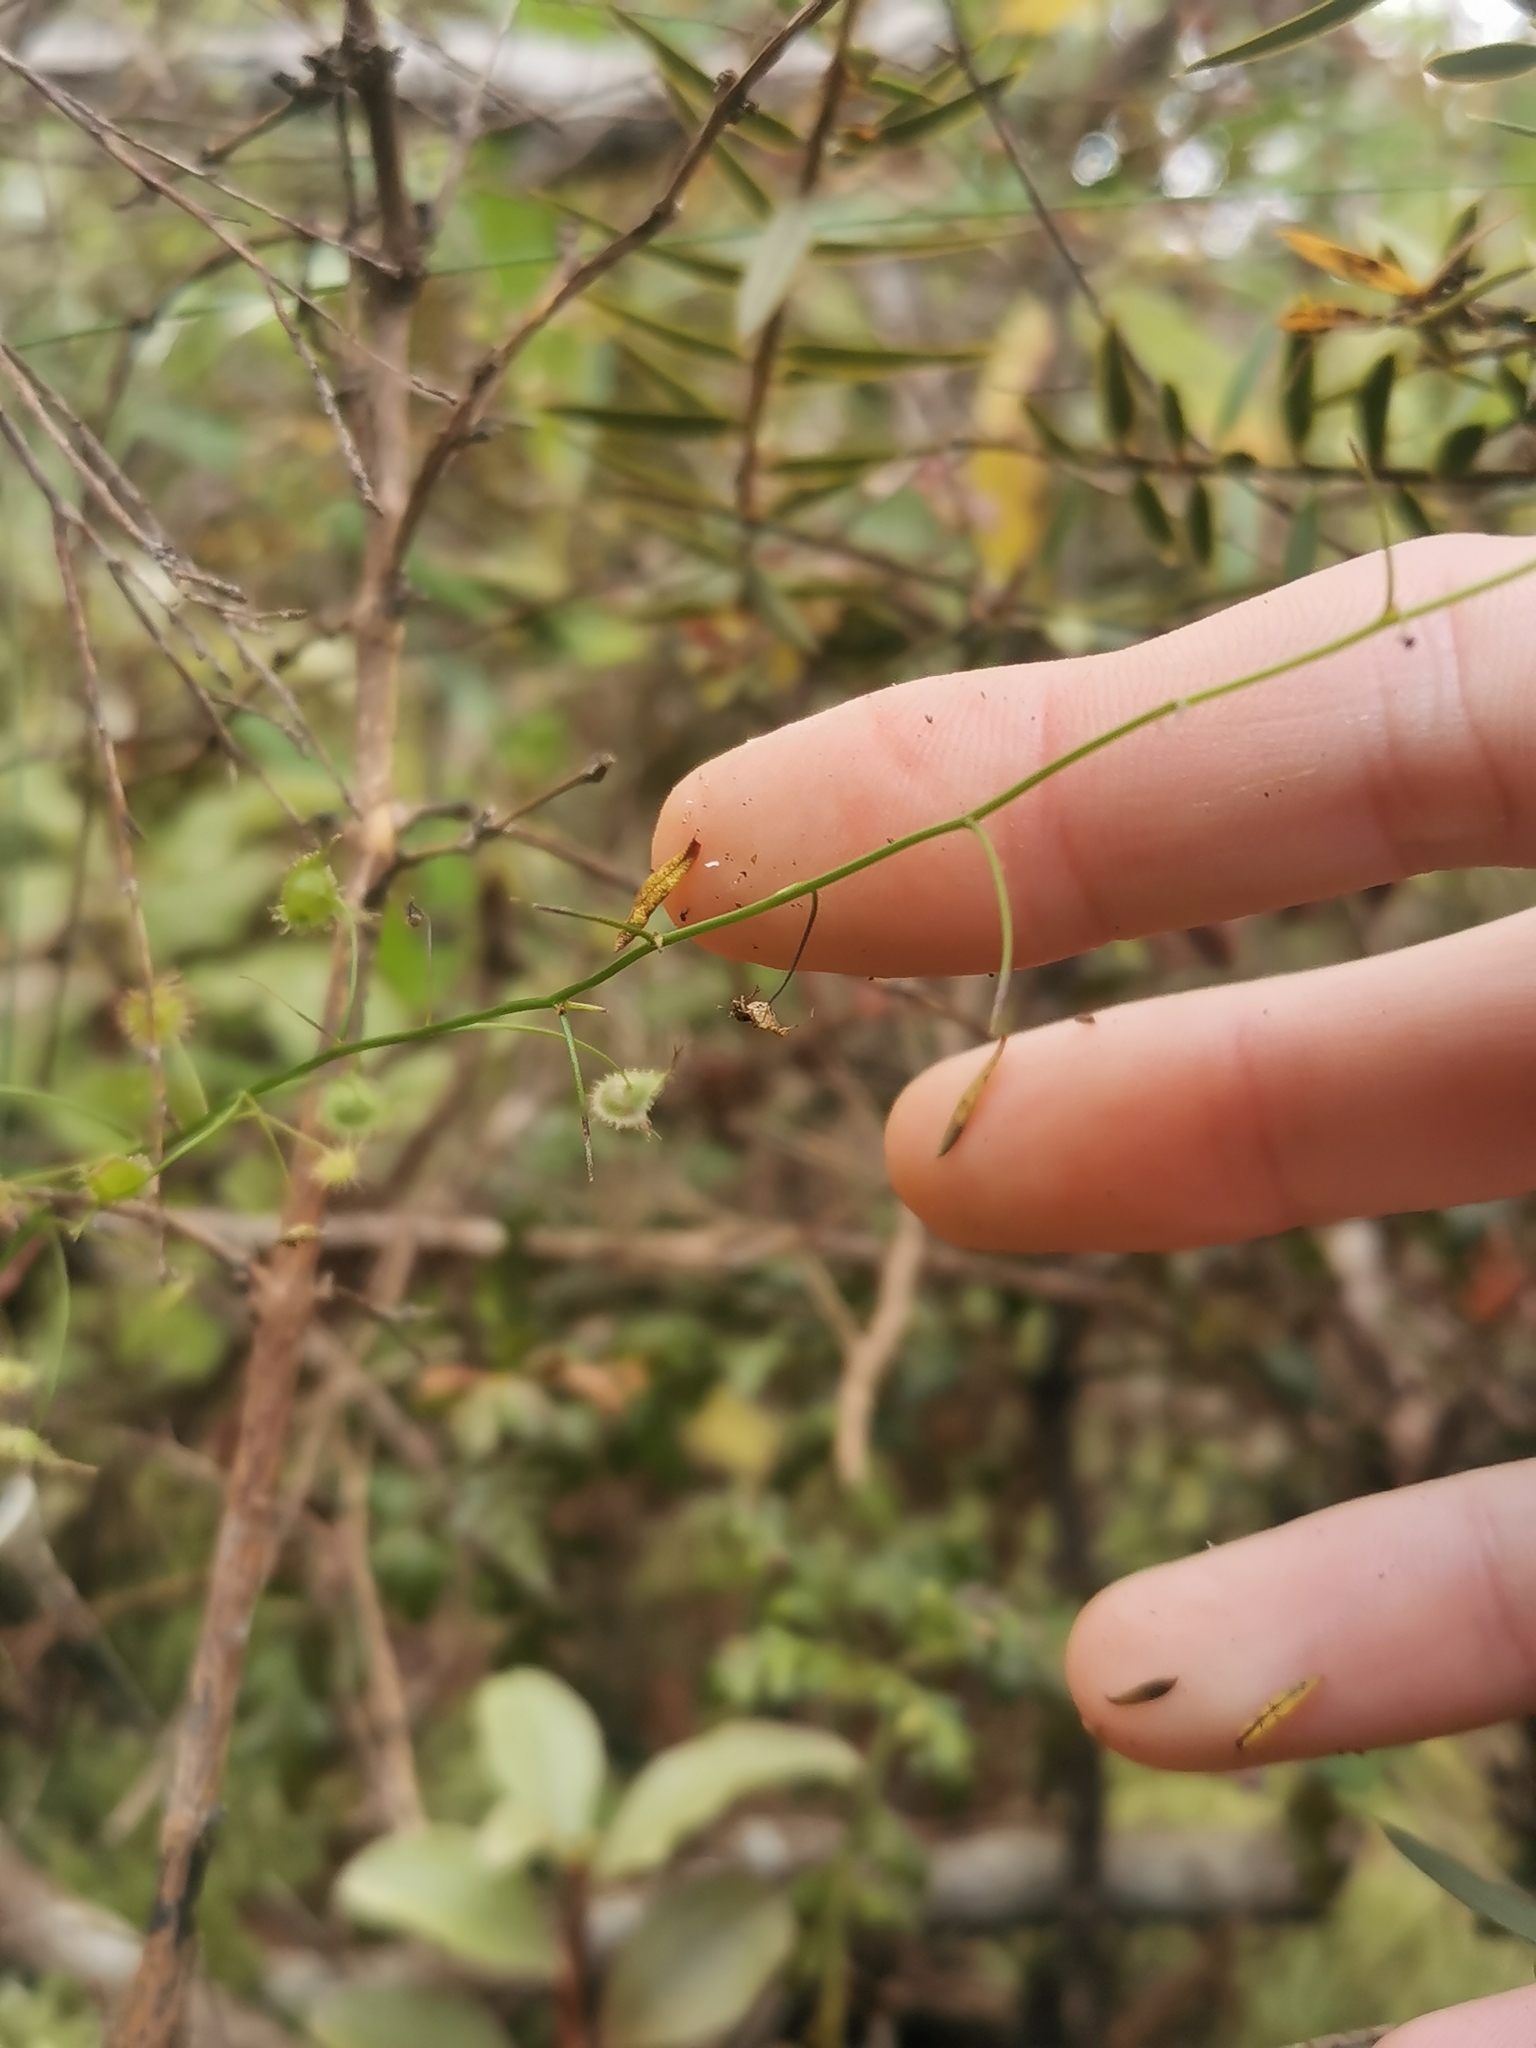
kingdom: Plantae
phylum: Tracheophyta
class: Magnoliopsida
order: Caryophyllales
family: Droseraceae
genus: Drosera
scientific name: Drosera peltata
